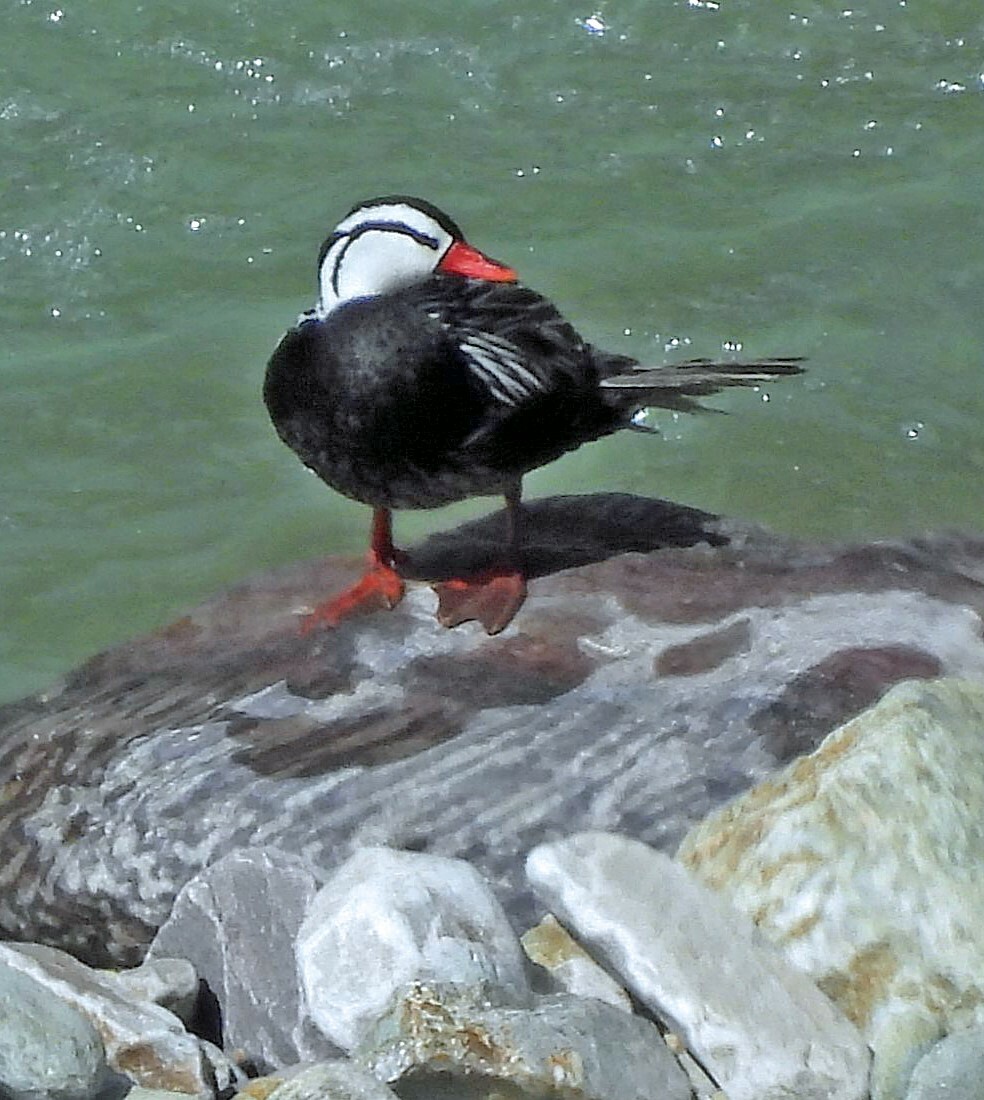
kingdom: Animalia
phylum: Chordata
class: Aves
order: Anseriformes
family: Anatidae
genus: Merganetta
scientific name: Merganetta armata
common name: Torrent duck
